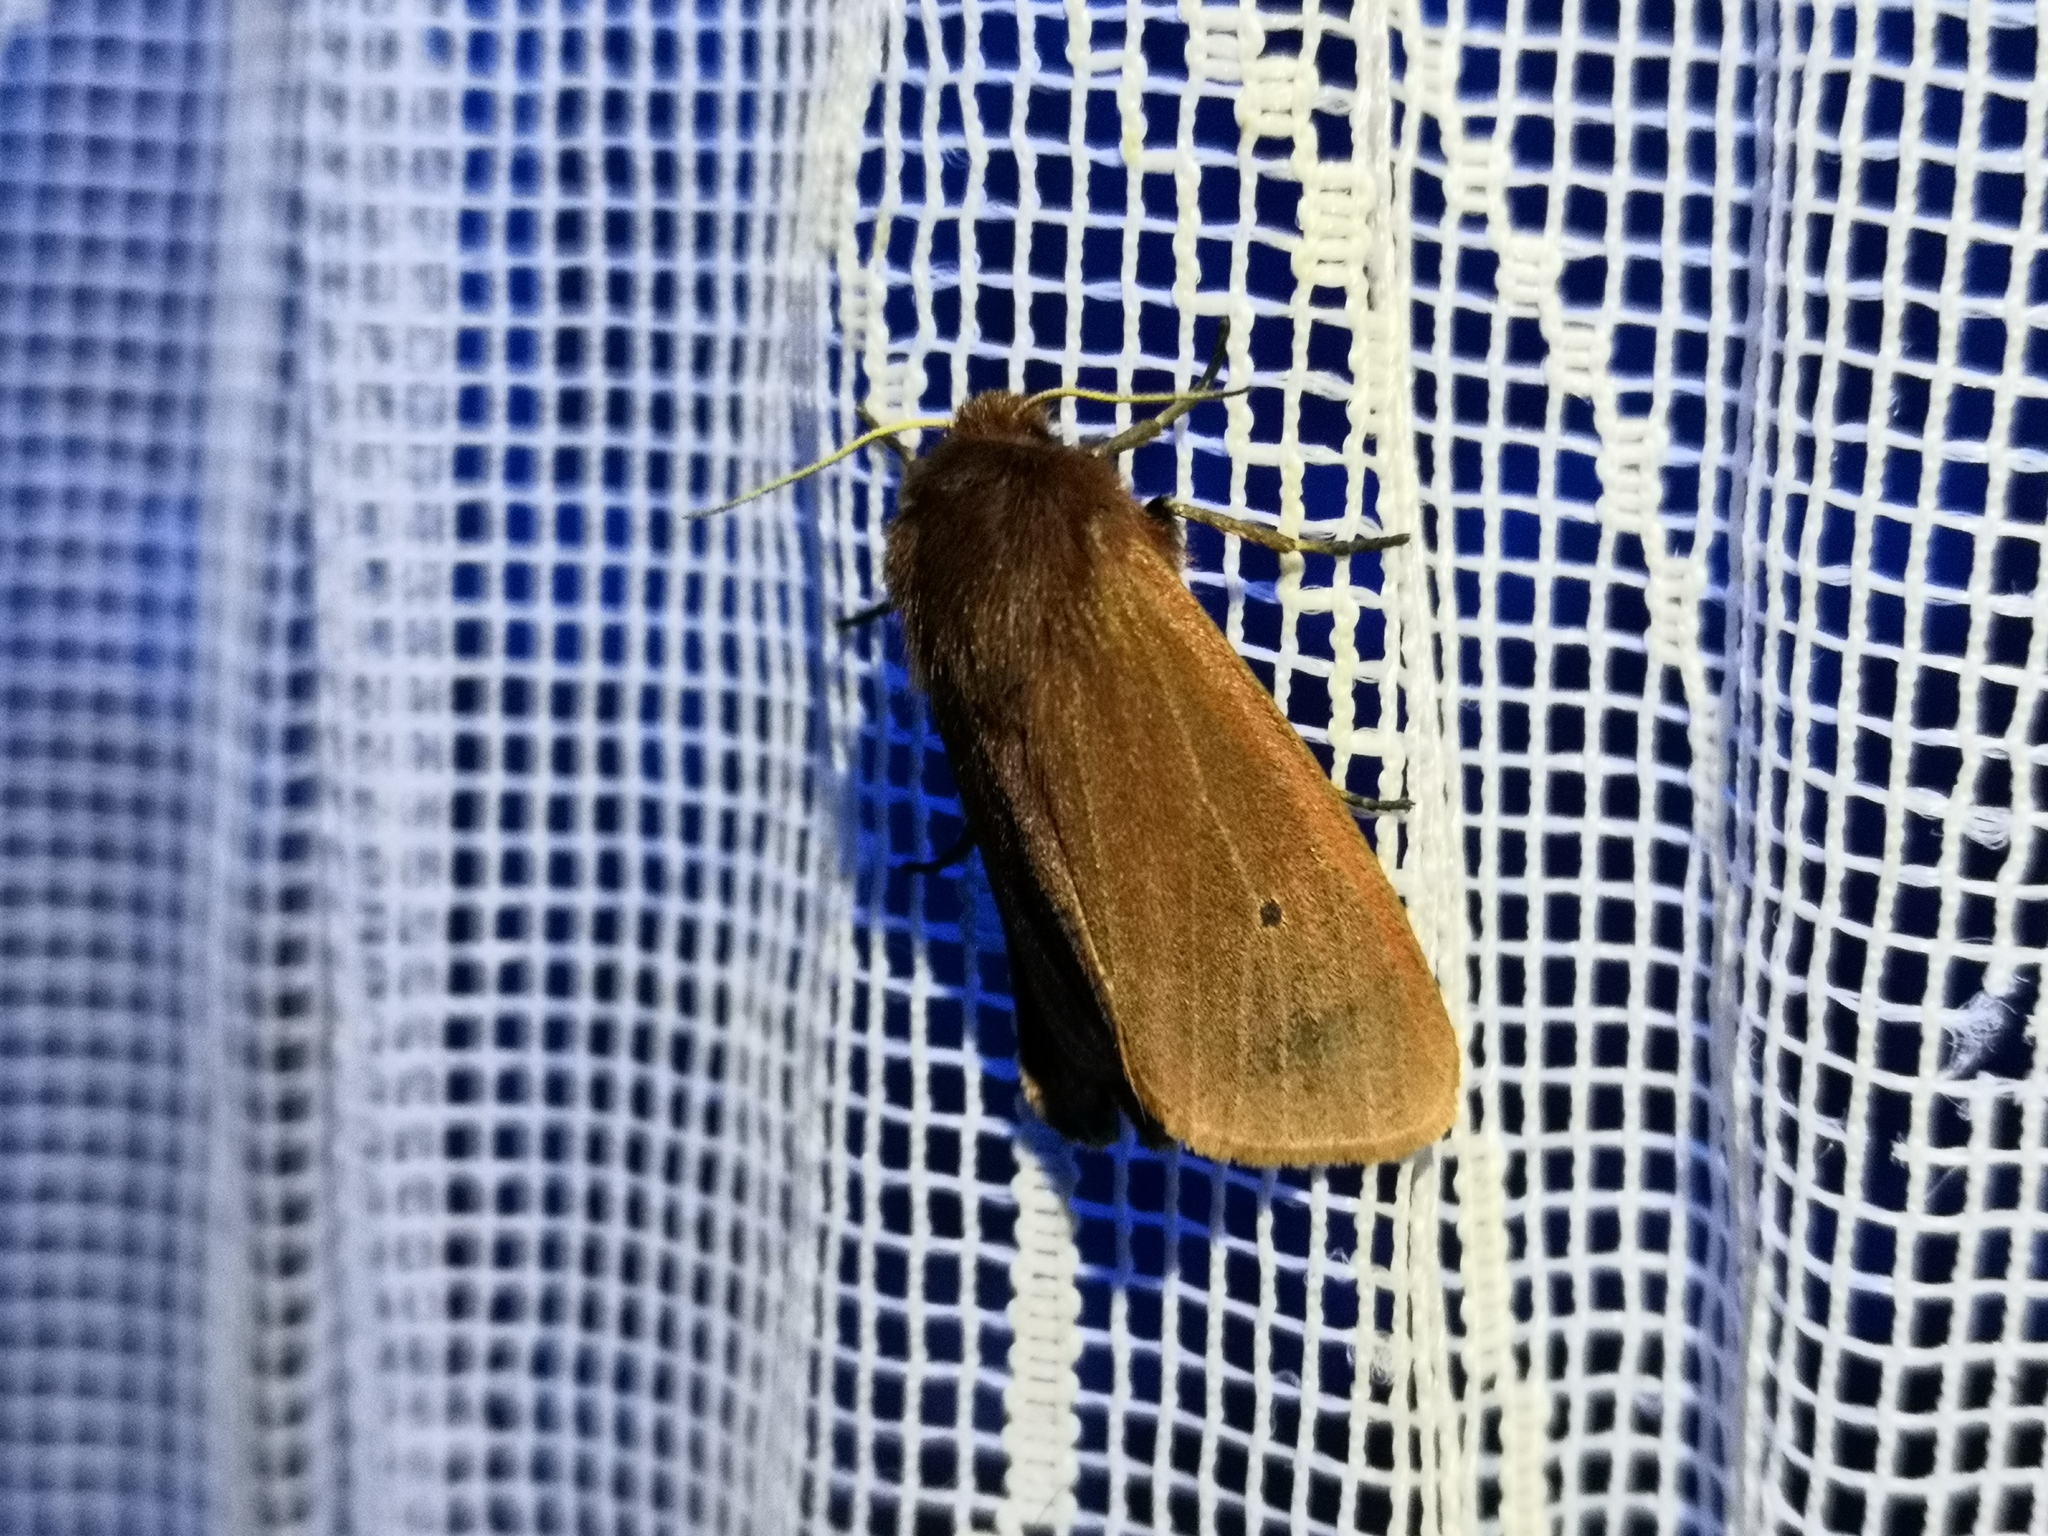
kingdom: Animalia
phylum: Arthropoda
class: Insecta
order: Lepidoptera
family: Erebidae
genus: Phragmatobia
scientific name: Phragmatobia fuliginosa
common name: Ruby tiger
